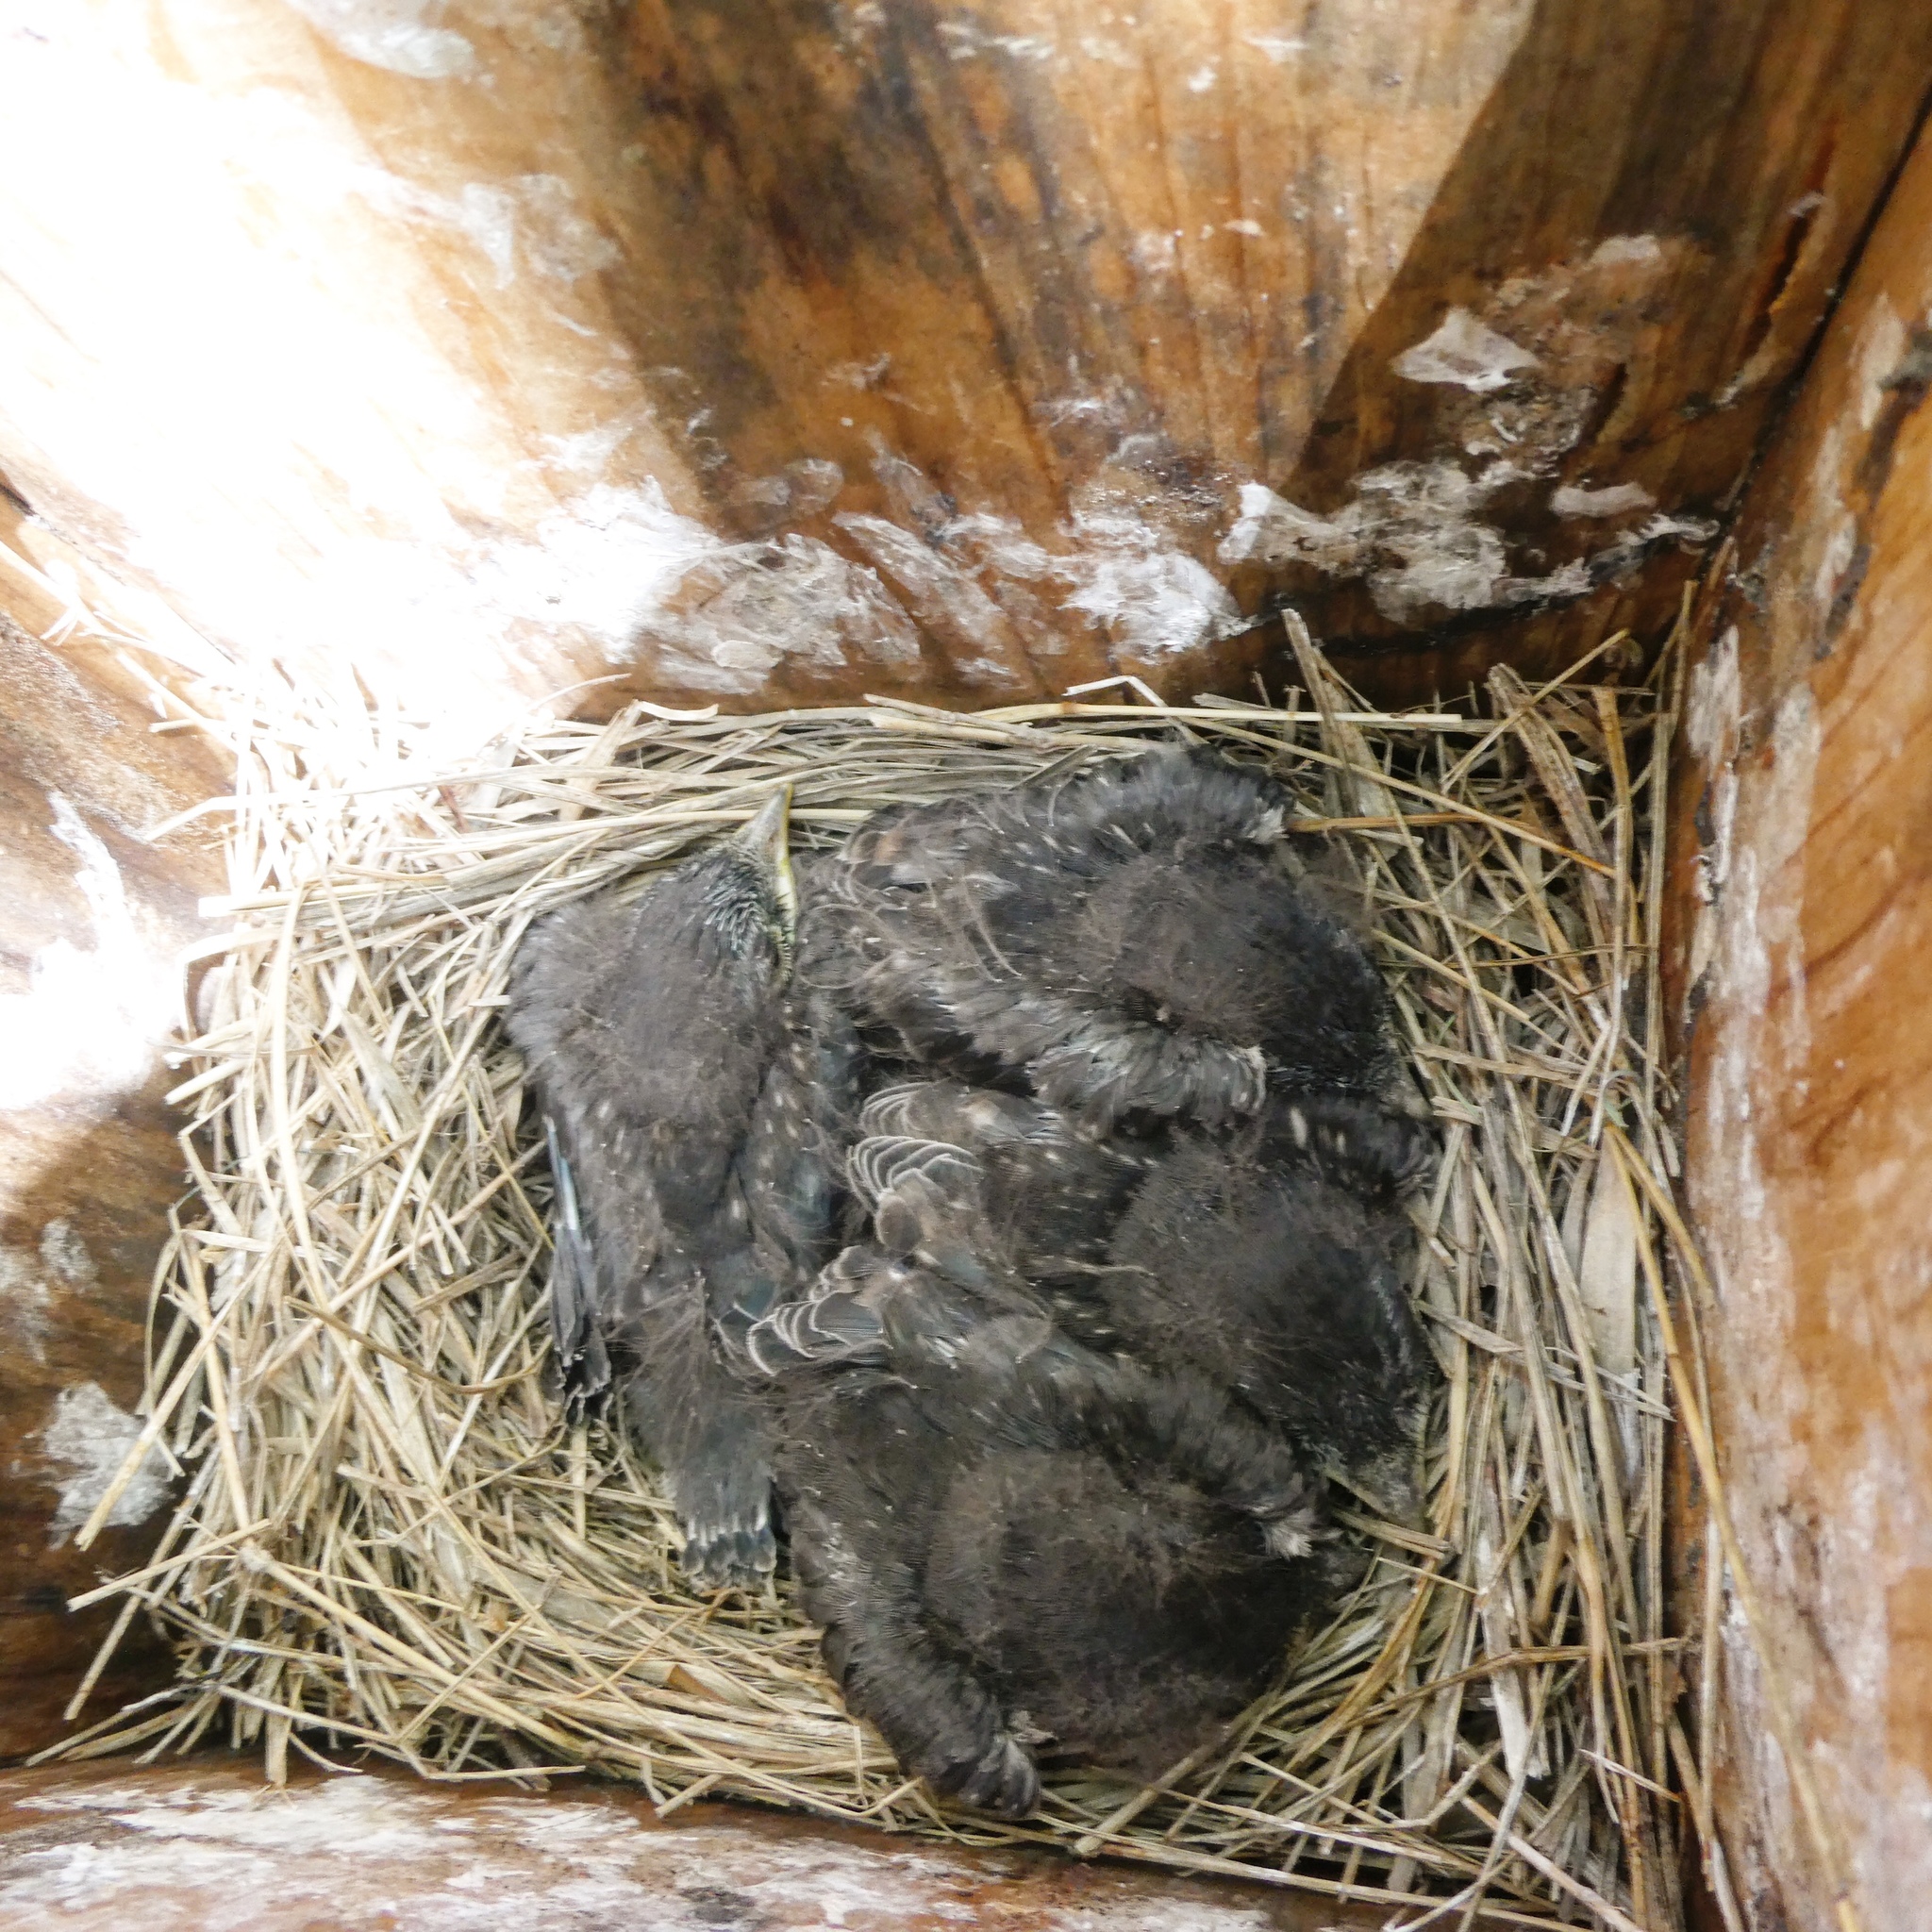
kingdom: Animalia
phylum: Chordata
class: Aves
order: Passeriformes
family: Turdidae
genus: Sialia
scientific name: Sialia sialis
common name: Eastern bluebird
